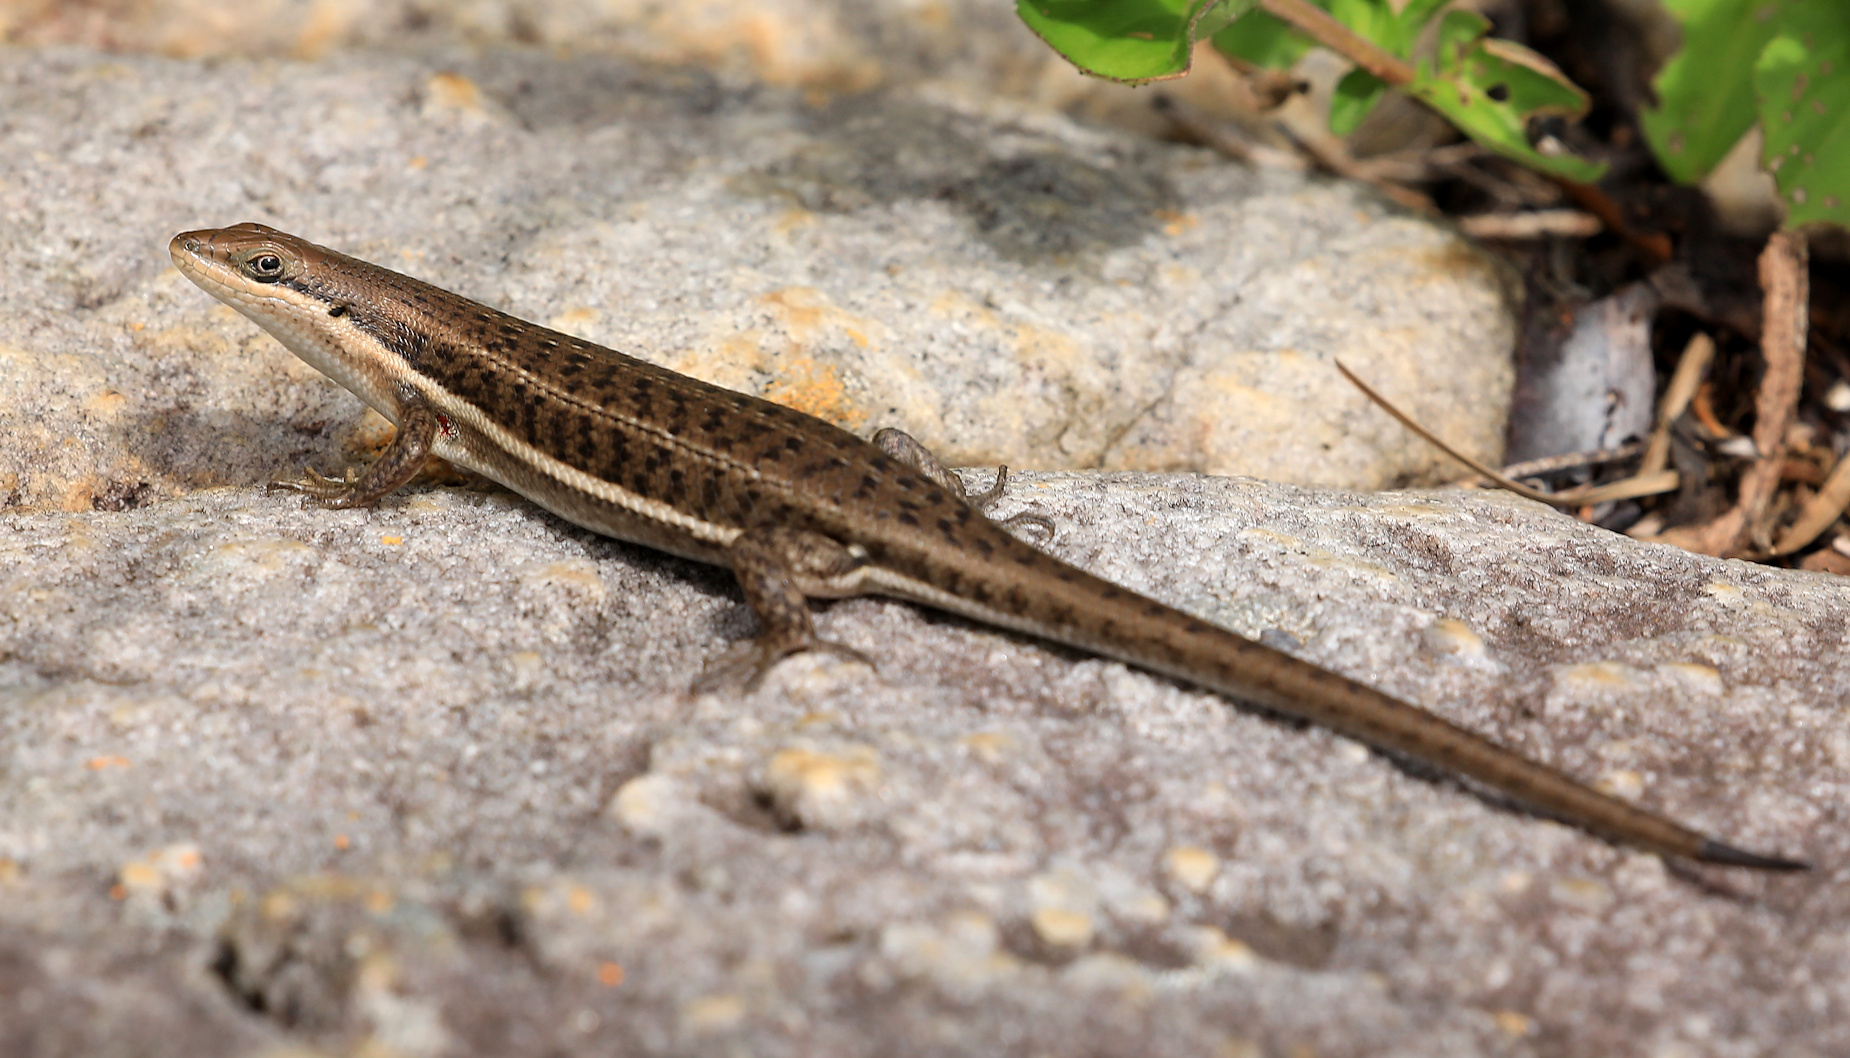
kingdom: Animalia
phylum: Chordata
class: Squamata
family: Scincidae
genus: Trachylepis
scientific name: Trachylepis varia
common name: Eastern variable skink
